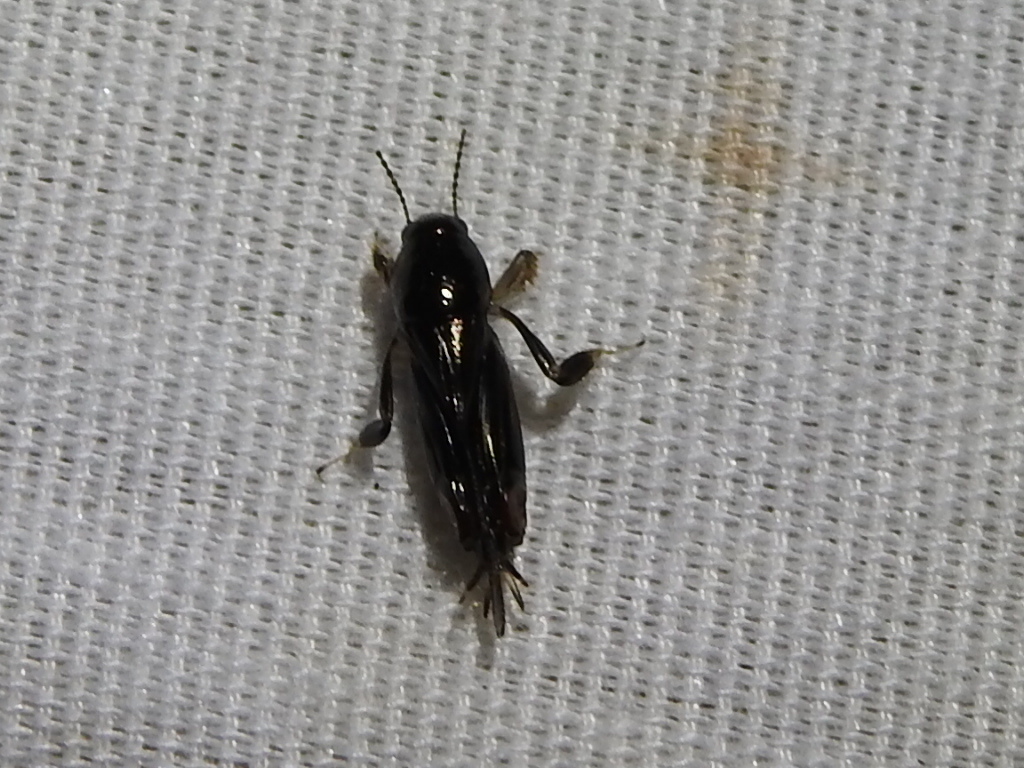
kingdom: Animalia
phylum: Arthropoda
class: Insecta
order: Orthoptera
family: Tridactylidae
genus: Neotridactylus
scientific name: Neotridactylus apicialis
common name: Larger pygmy locust
